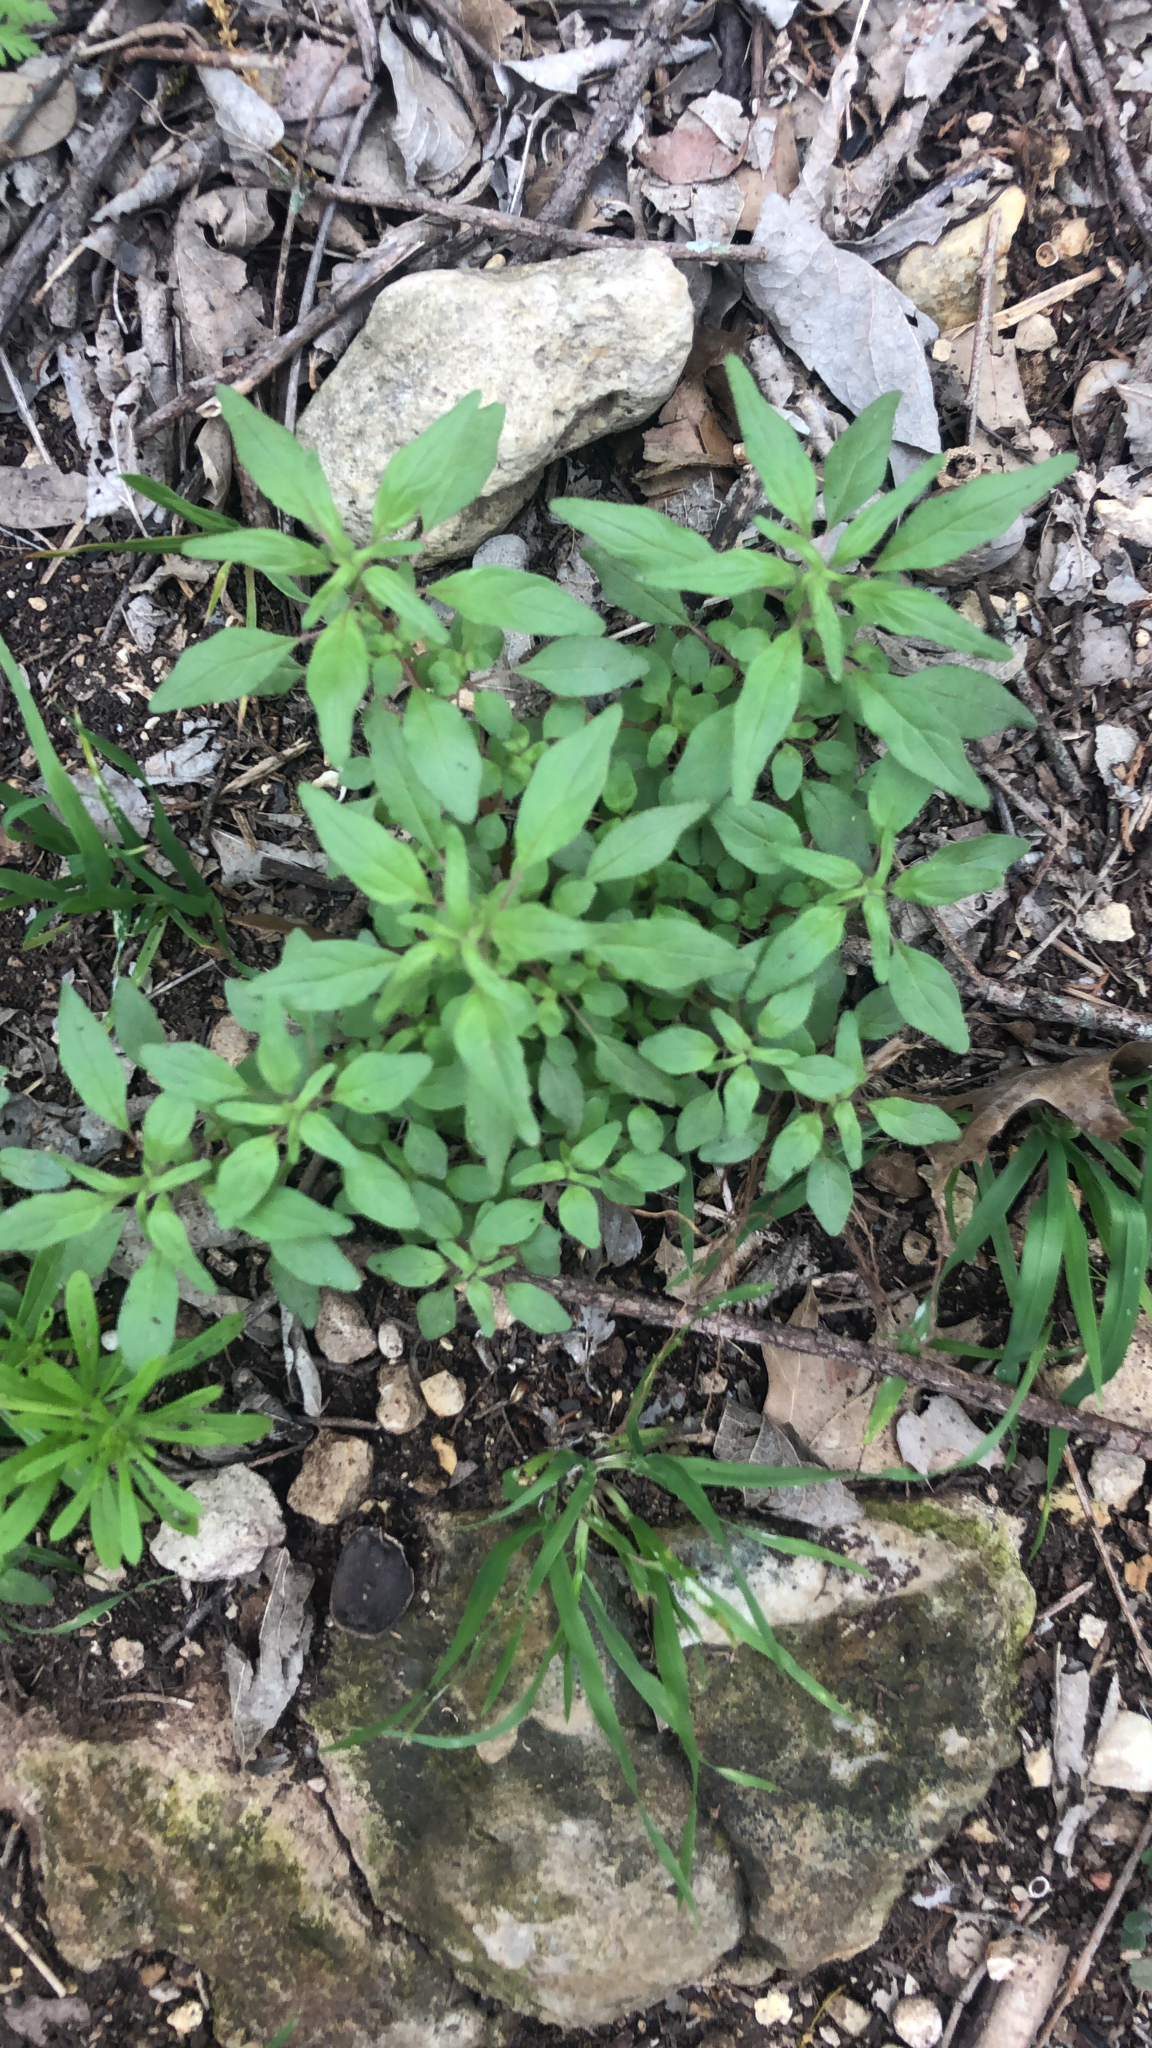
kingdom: Plantae
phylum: Tracheophyta
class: Magnoliopsida
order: Rosales
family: Urticaceae
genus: Parietaria
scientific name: Parietaria pensylvanica
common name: Pennsylvania pellitory
